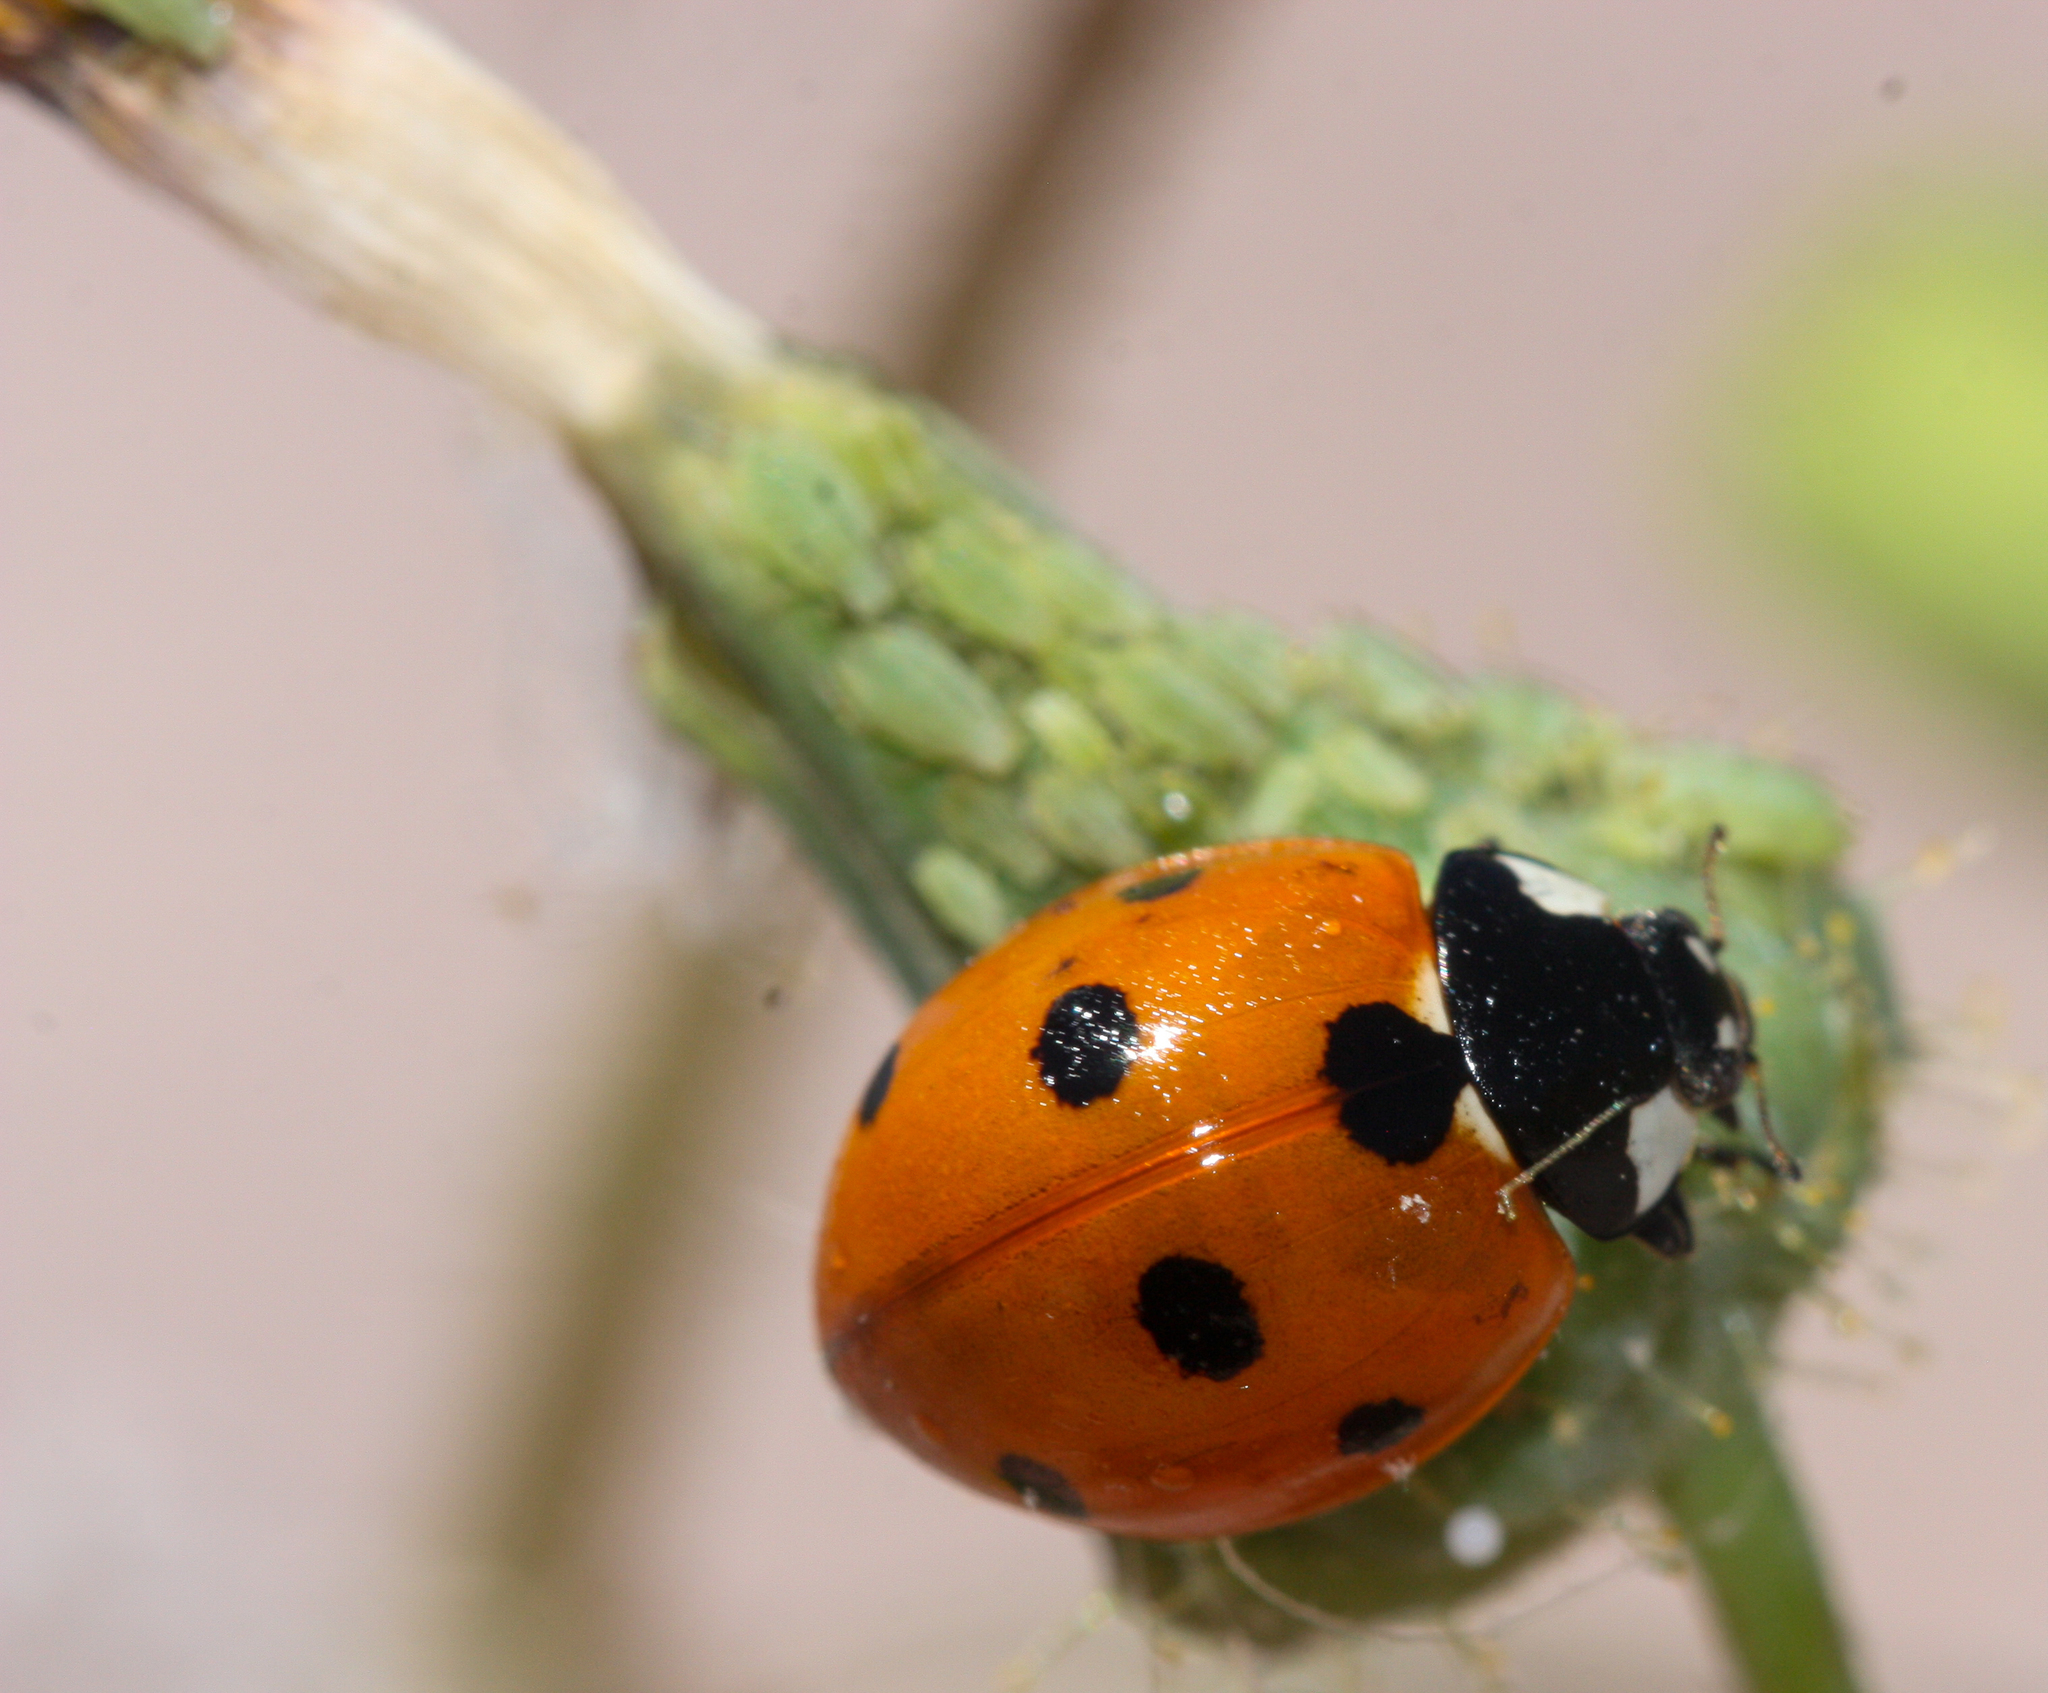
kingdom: Animalia
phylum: Arthropoda
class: Insecta
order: Coleoptera
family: Coccinellidae
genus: Coccinella
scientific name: Coccinella septempunctata
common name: Sevenspotted lady beetle
